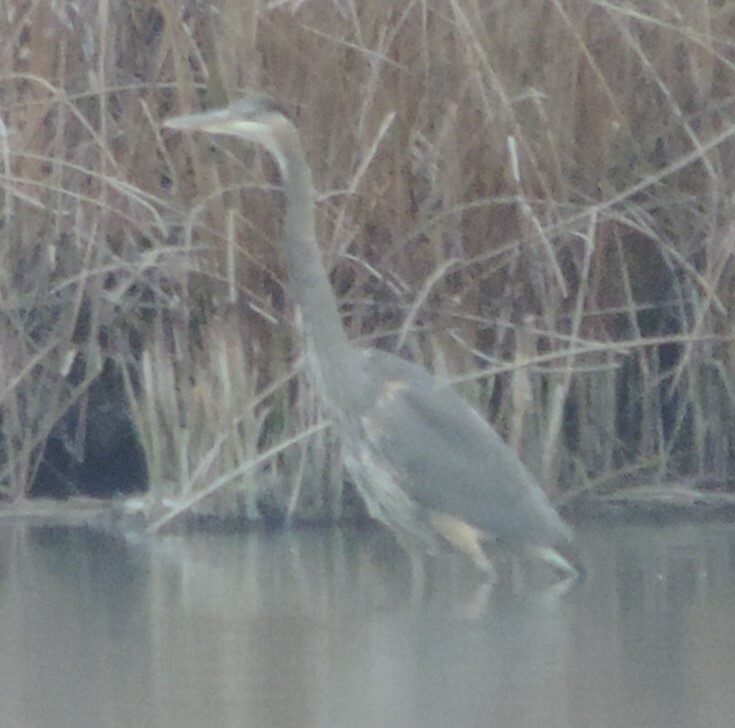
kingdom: Animalia
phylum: Chordata
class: Aves
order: Pelecaniformes
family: Ardeidae
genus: Ardea
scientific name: Ardea herodias
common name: Great blue heron
